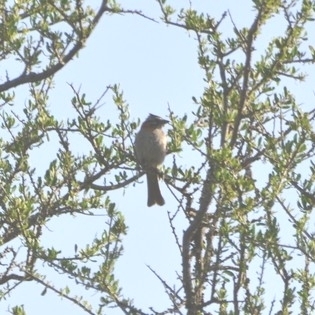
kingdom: Animalia
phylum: Chordata
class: Aves
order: Passeriformes
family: Passerellidae
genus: Zonotrichia
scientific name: Zonotrichia capensis
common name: Rufous-collared sparrow
